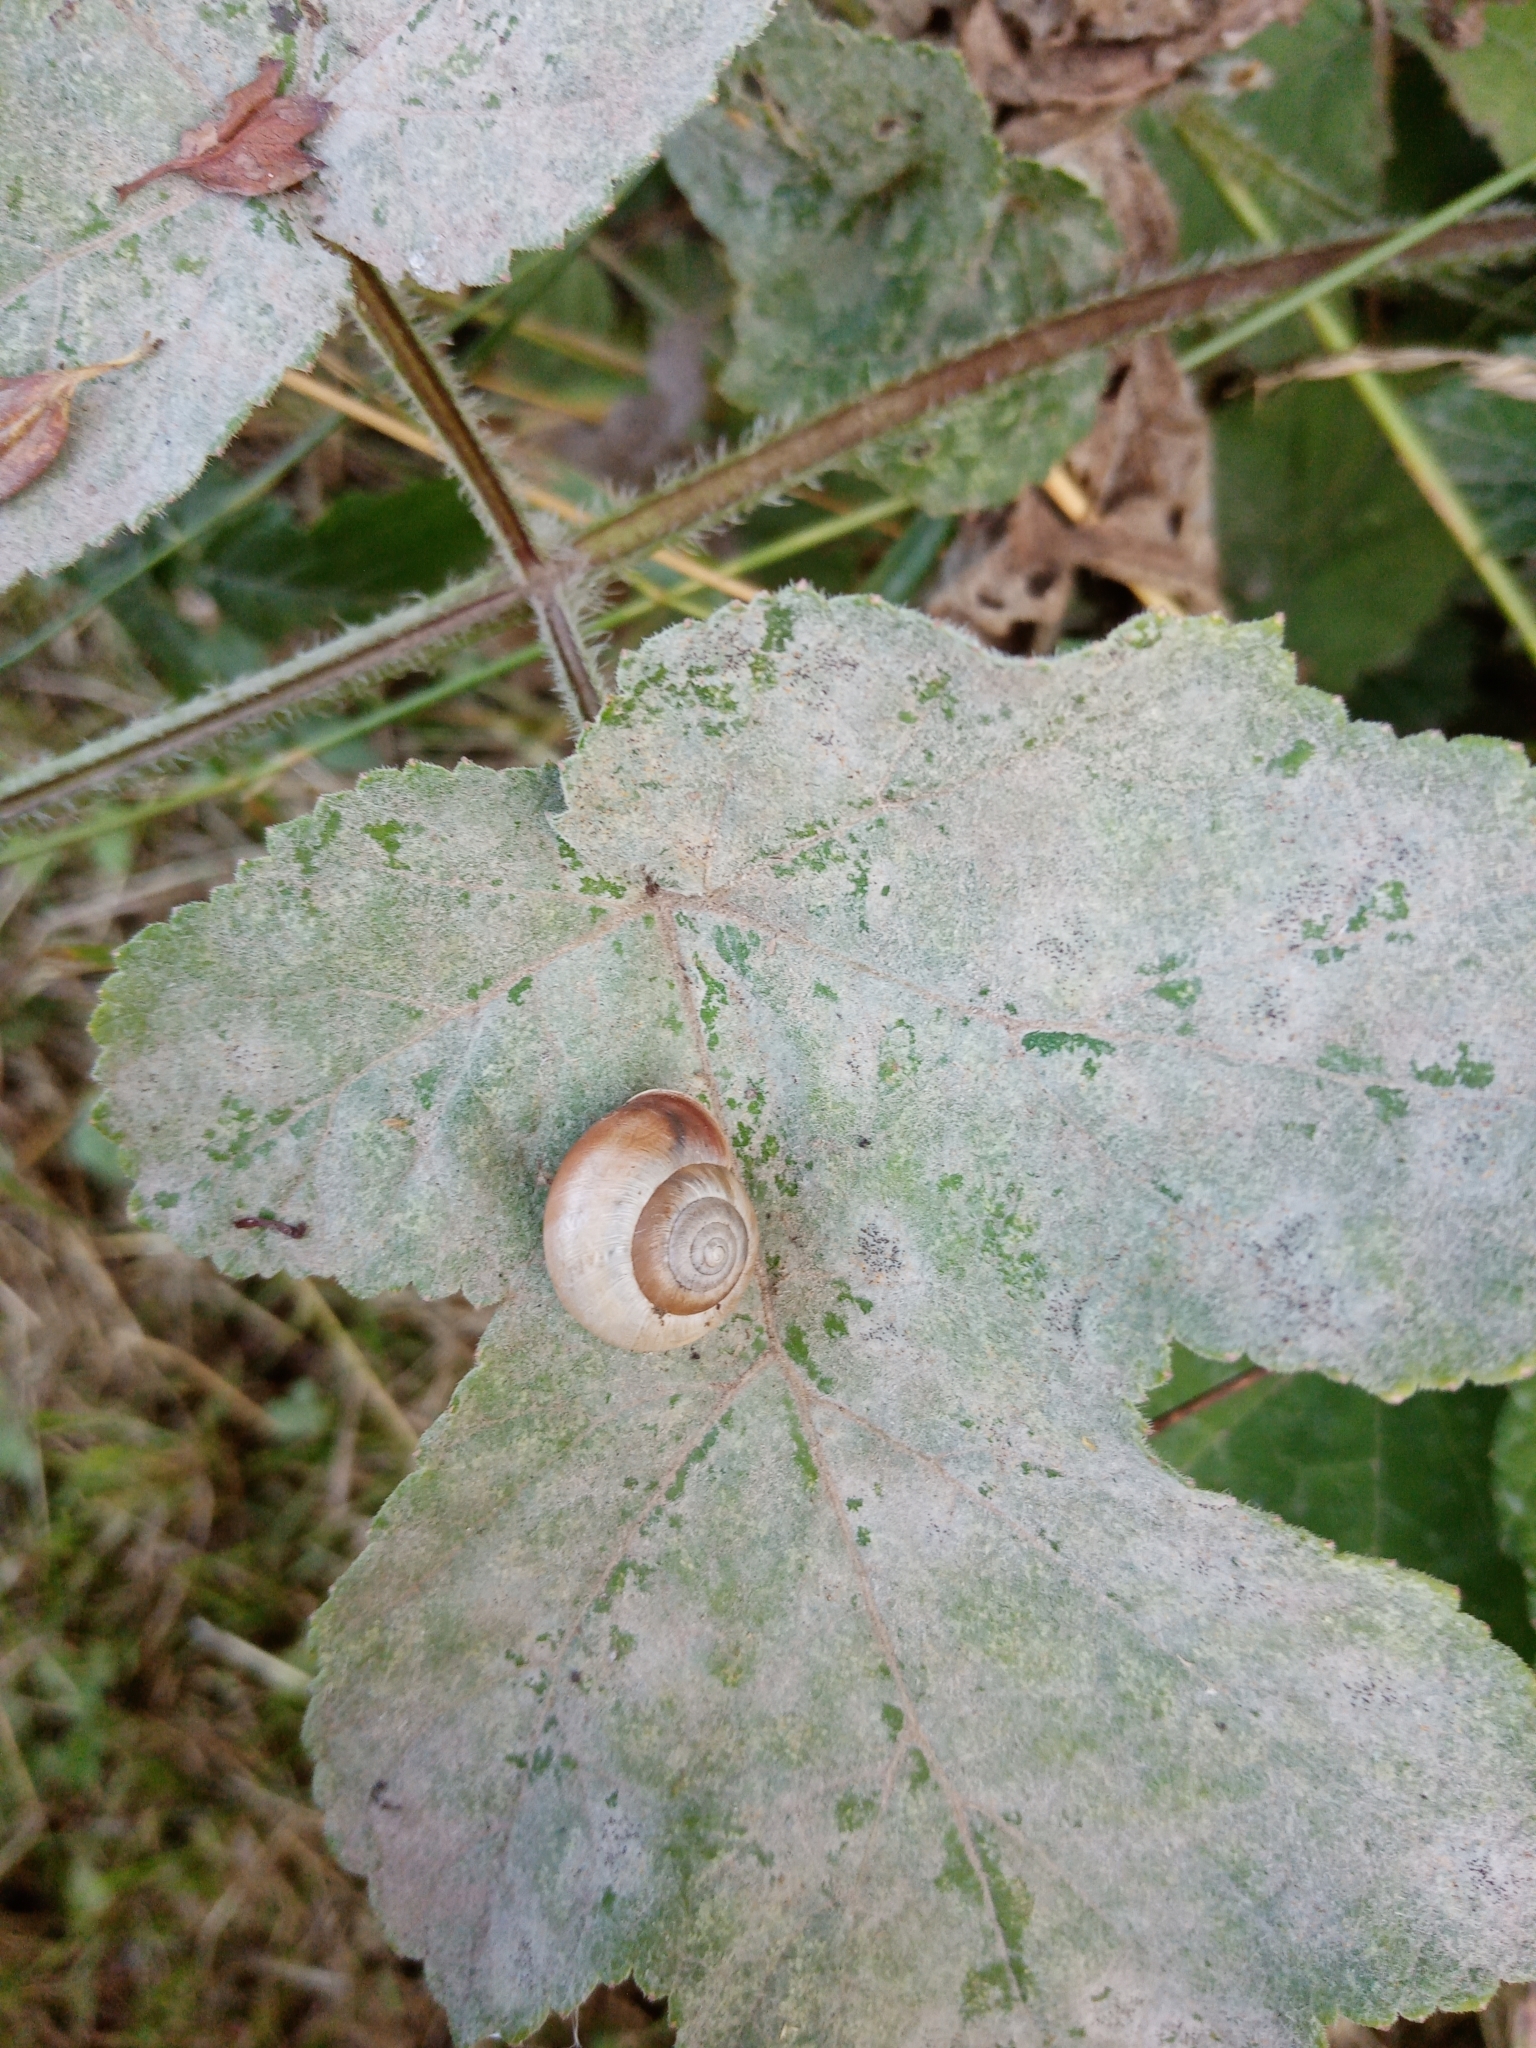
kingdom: Animalia
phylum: Mollusca
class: Gastropoda
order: Stylommatophora
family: Hygromiidae
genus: Monacha
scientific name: Monacha cantiana
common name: Kentish snail
